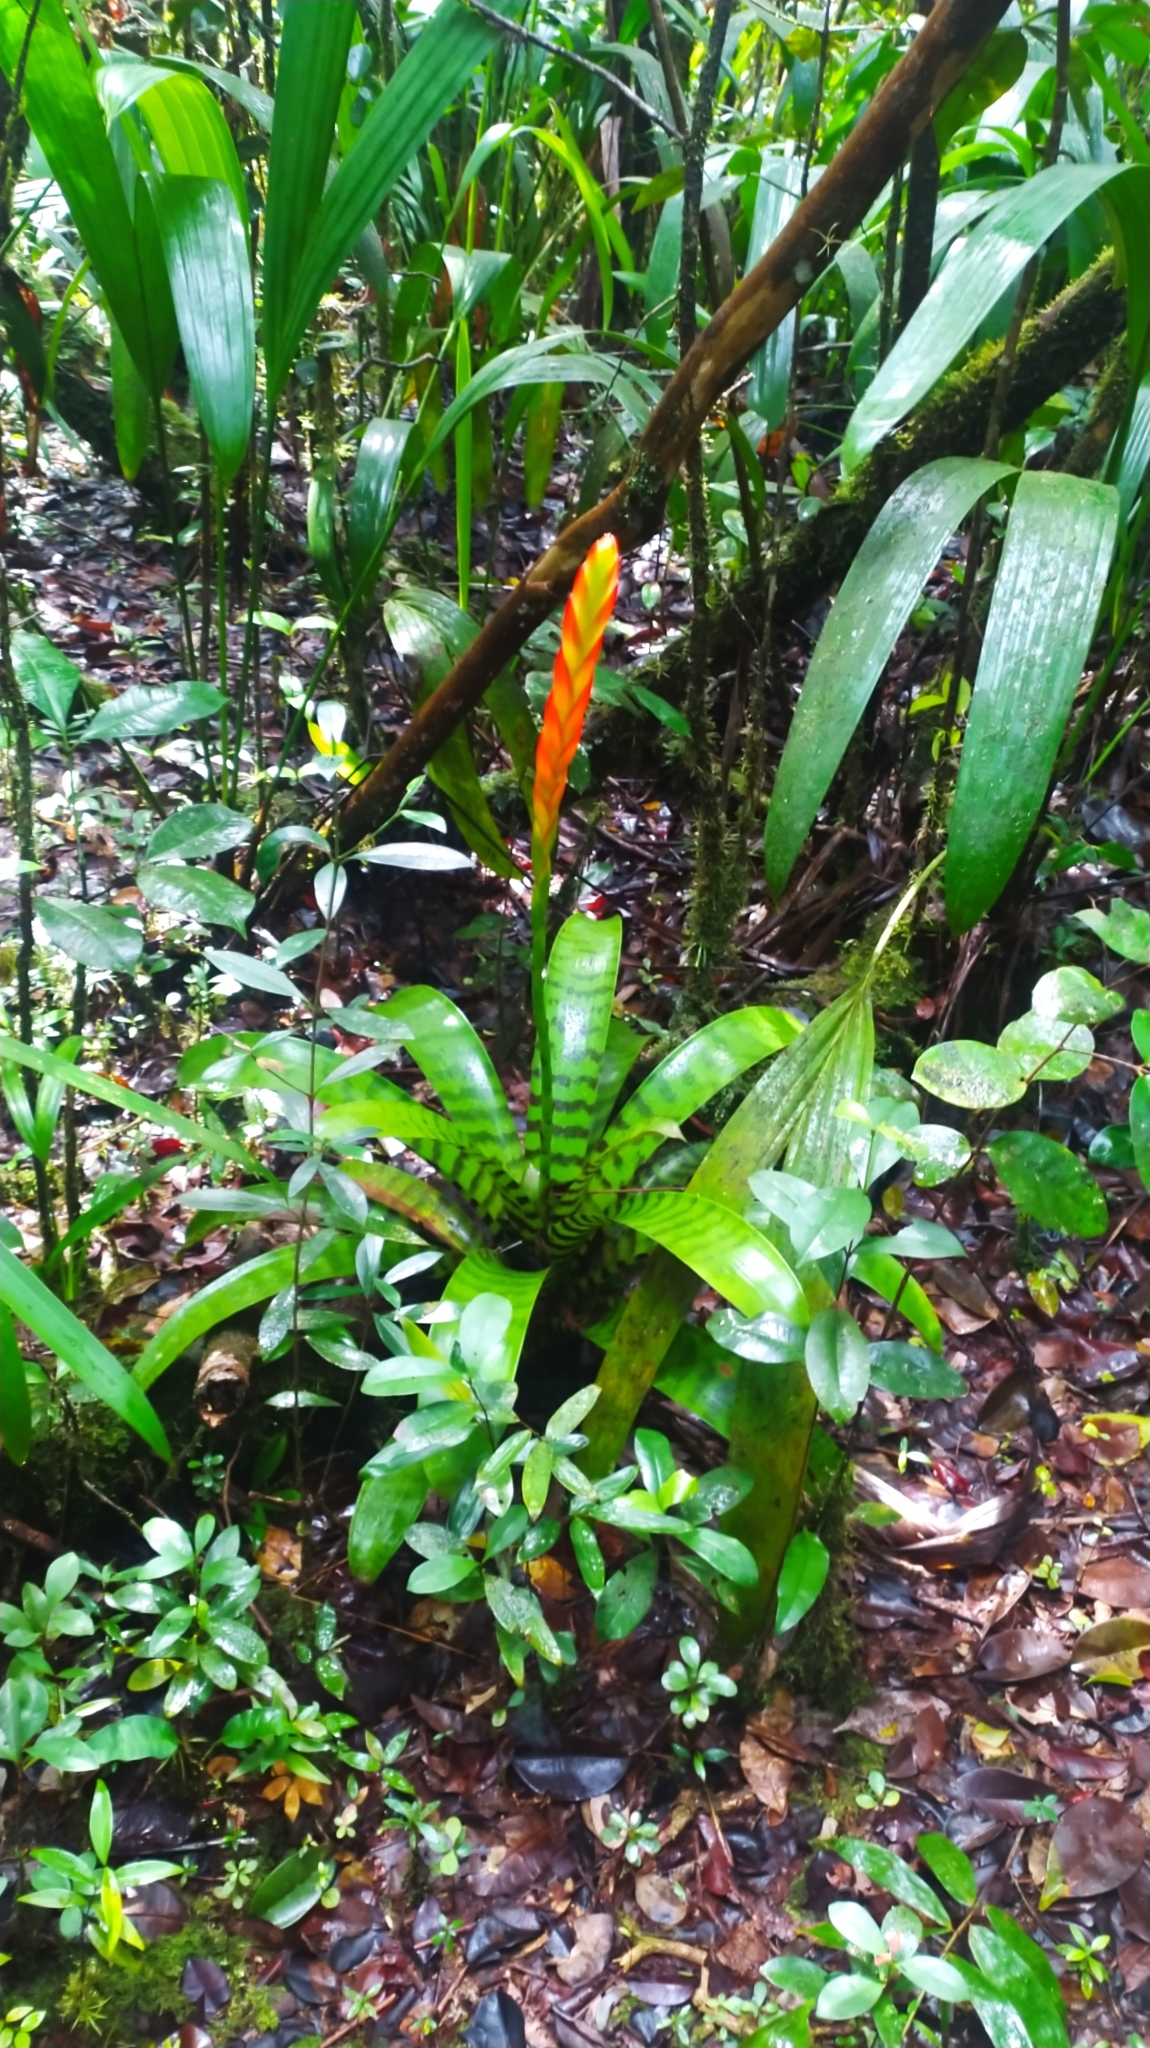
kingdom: Plantae
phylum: Tracheophyta
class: Liliopsida
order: Poales
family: Bromeliaceae
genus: Lutheria
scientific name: Lutheria splendens
